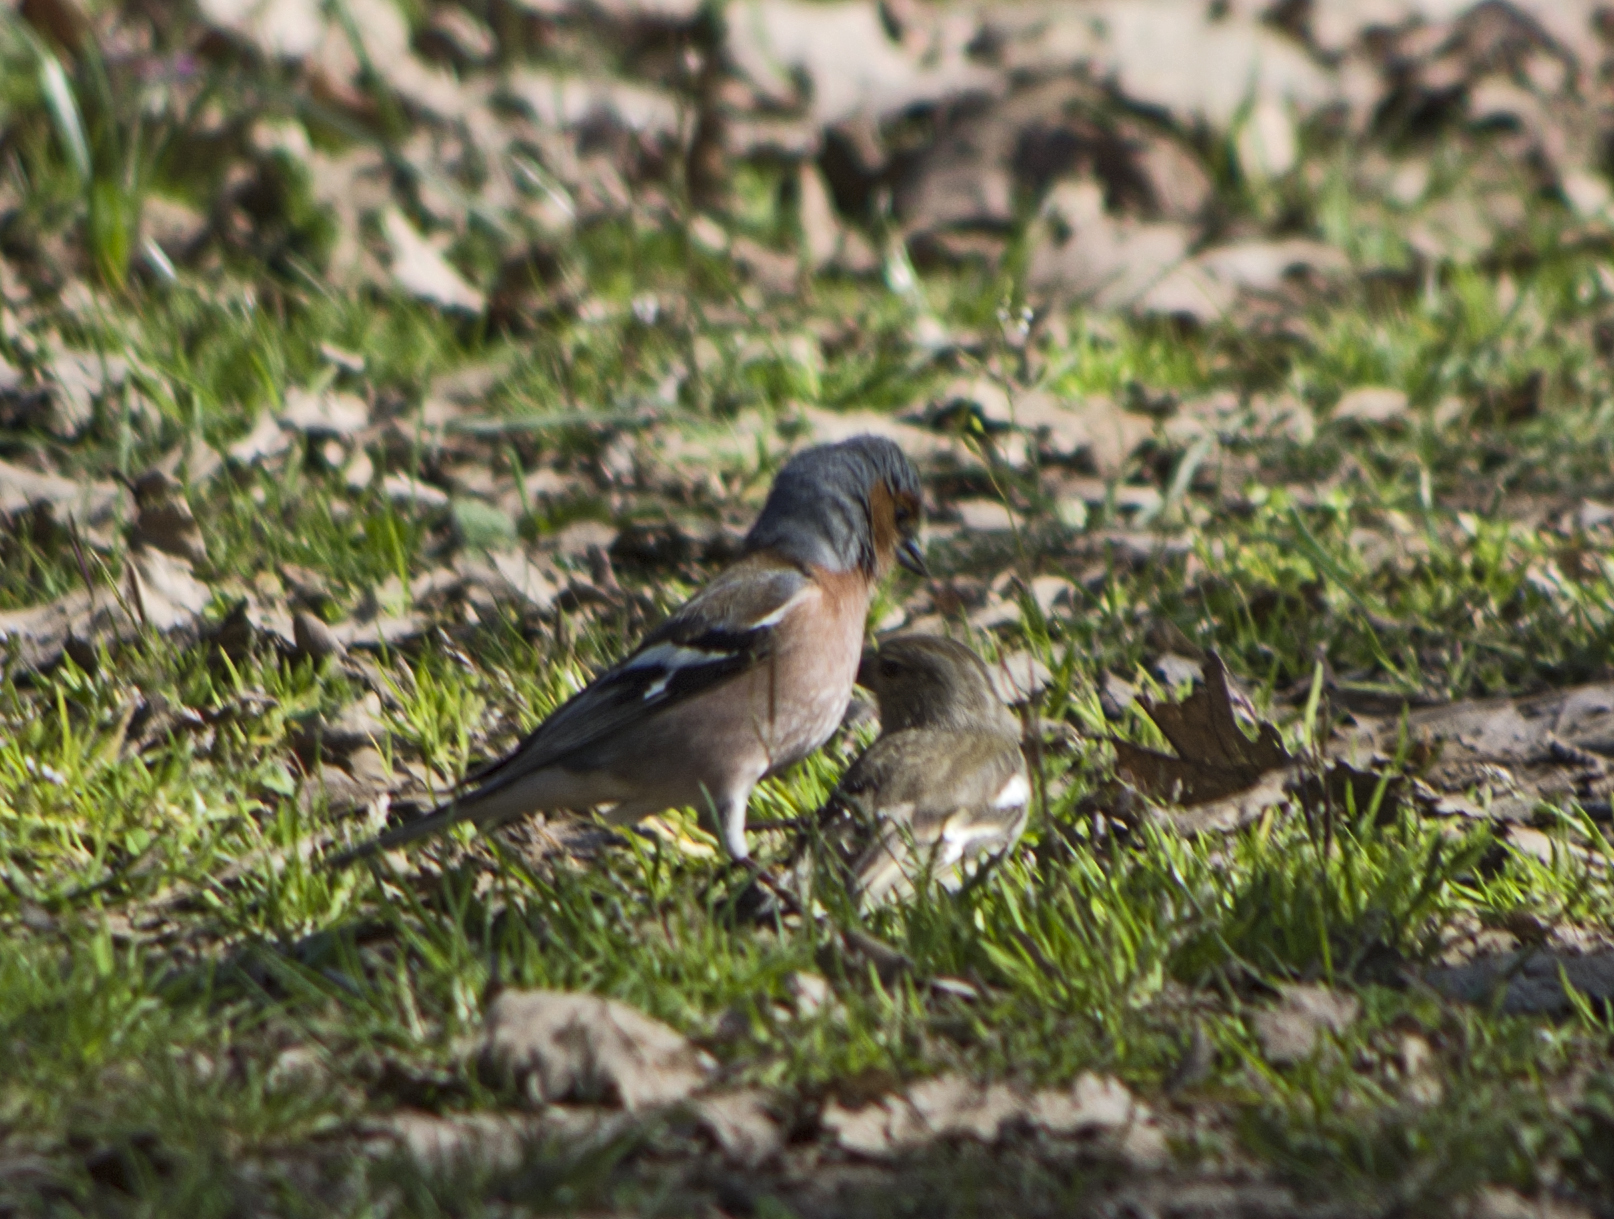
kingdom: Animalia
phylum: Chordata
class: Aves
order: Passeriformes
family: Fringillidae
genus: Fringilla
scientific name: Fringilla coelebs
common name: Common chaffinch
